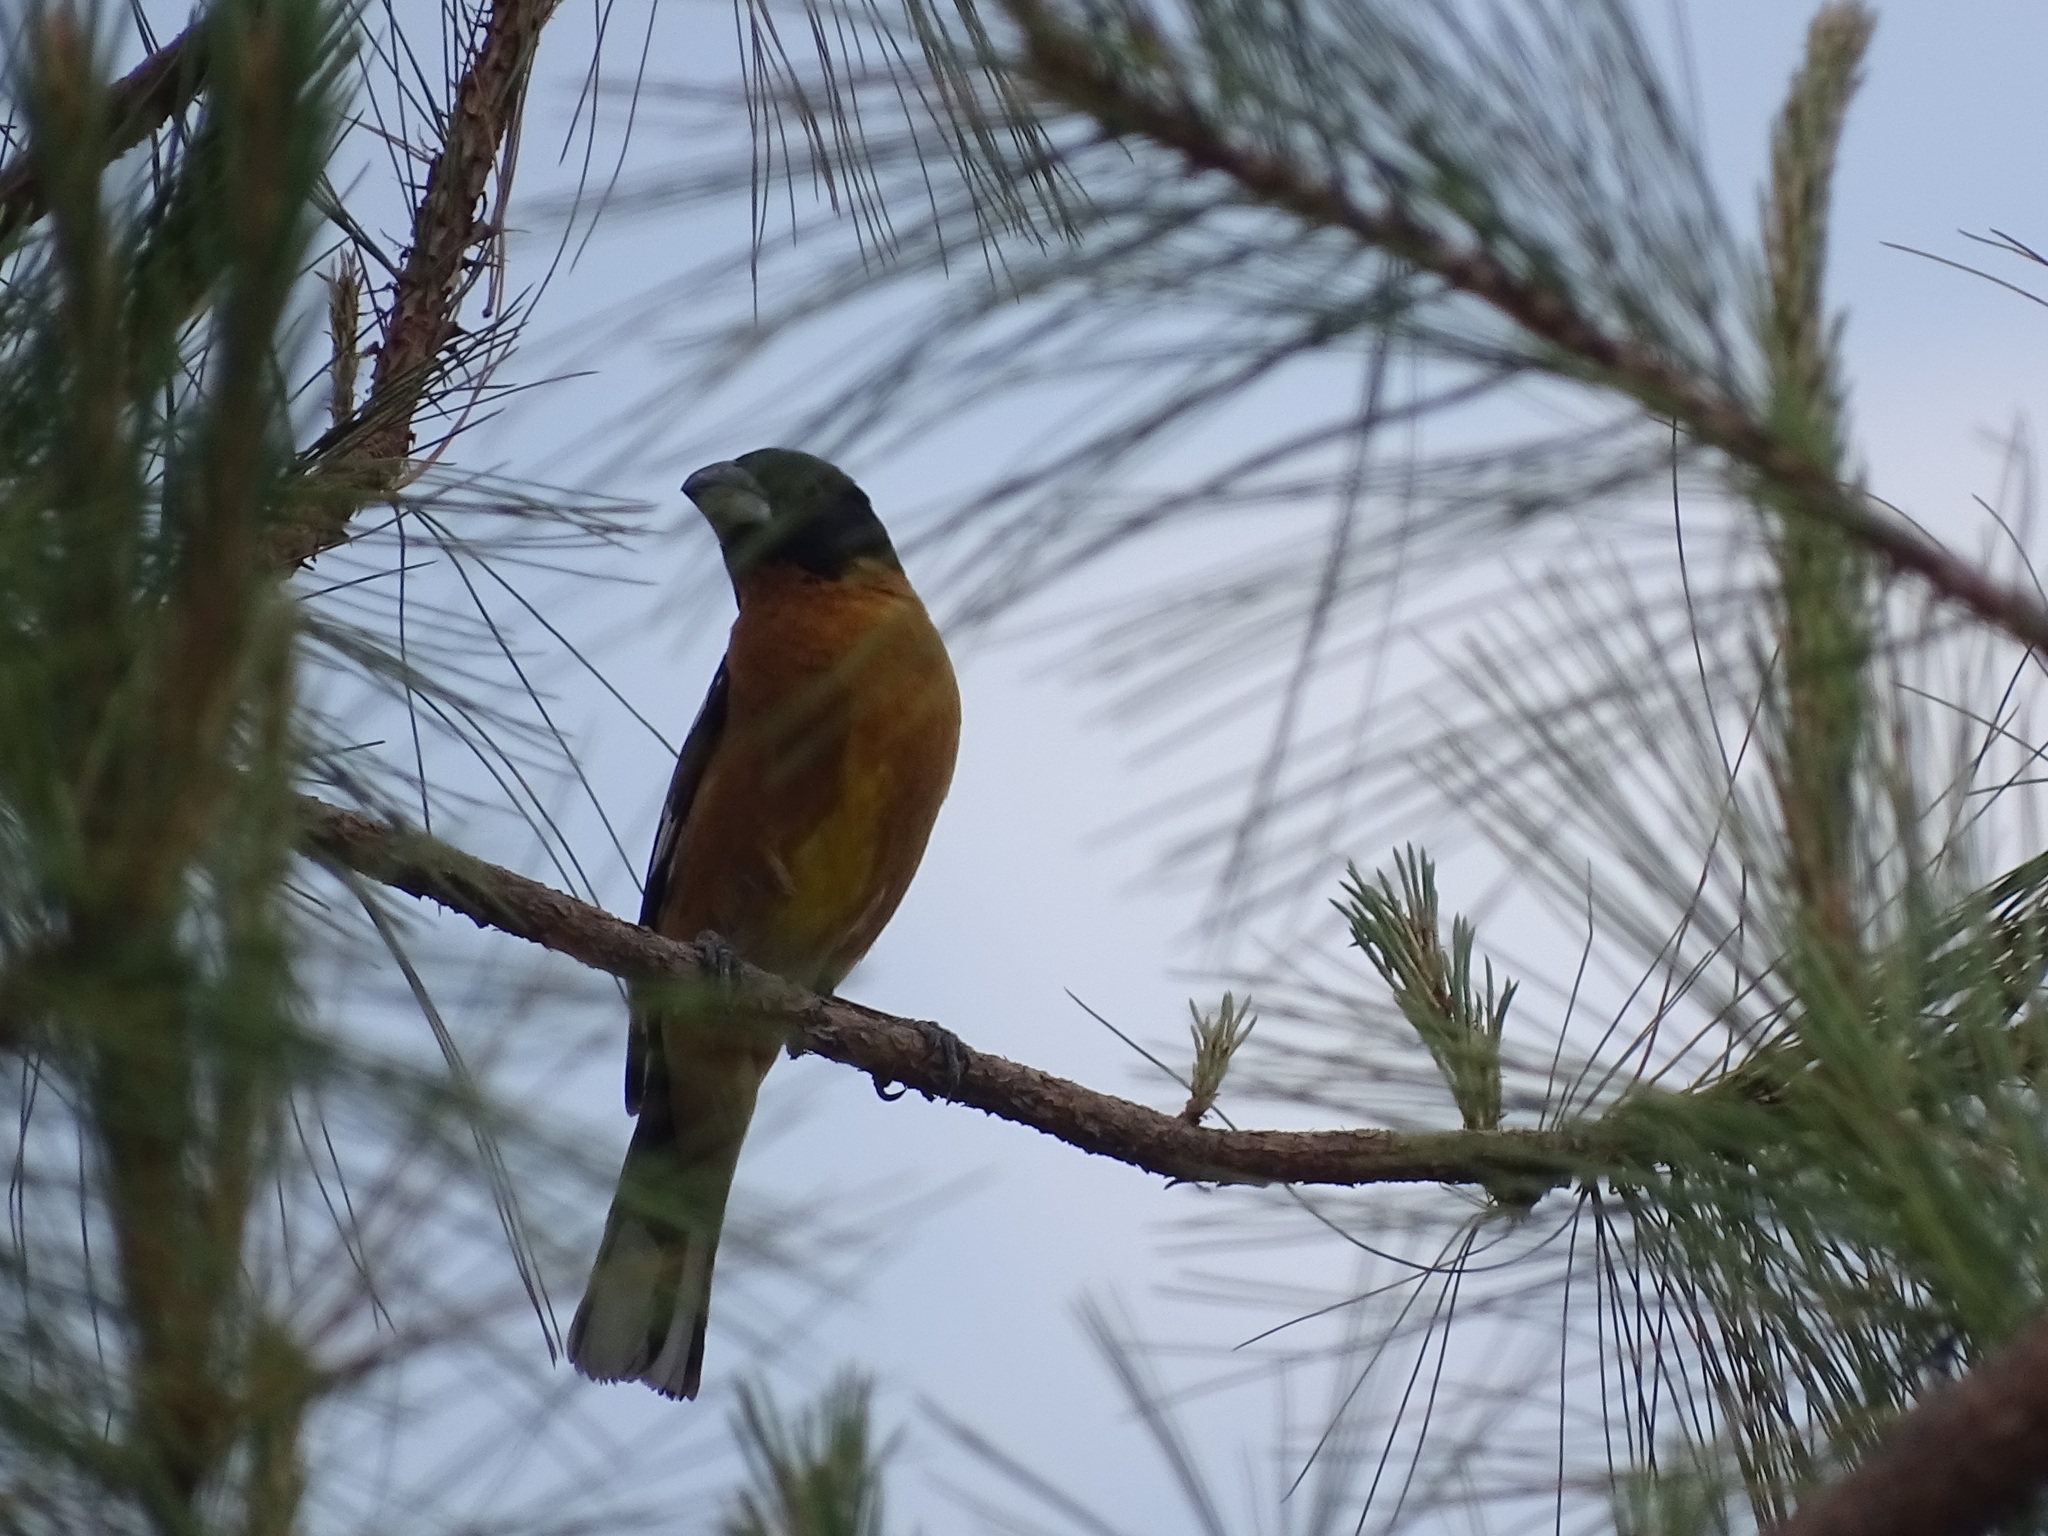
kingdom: Animalia
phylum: Chordata
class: Aves
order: Passeriformes
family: Cardinalidae
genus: Pheucticus
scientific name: Pheucticus melanocephalus
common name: Black-headed grosbeak
